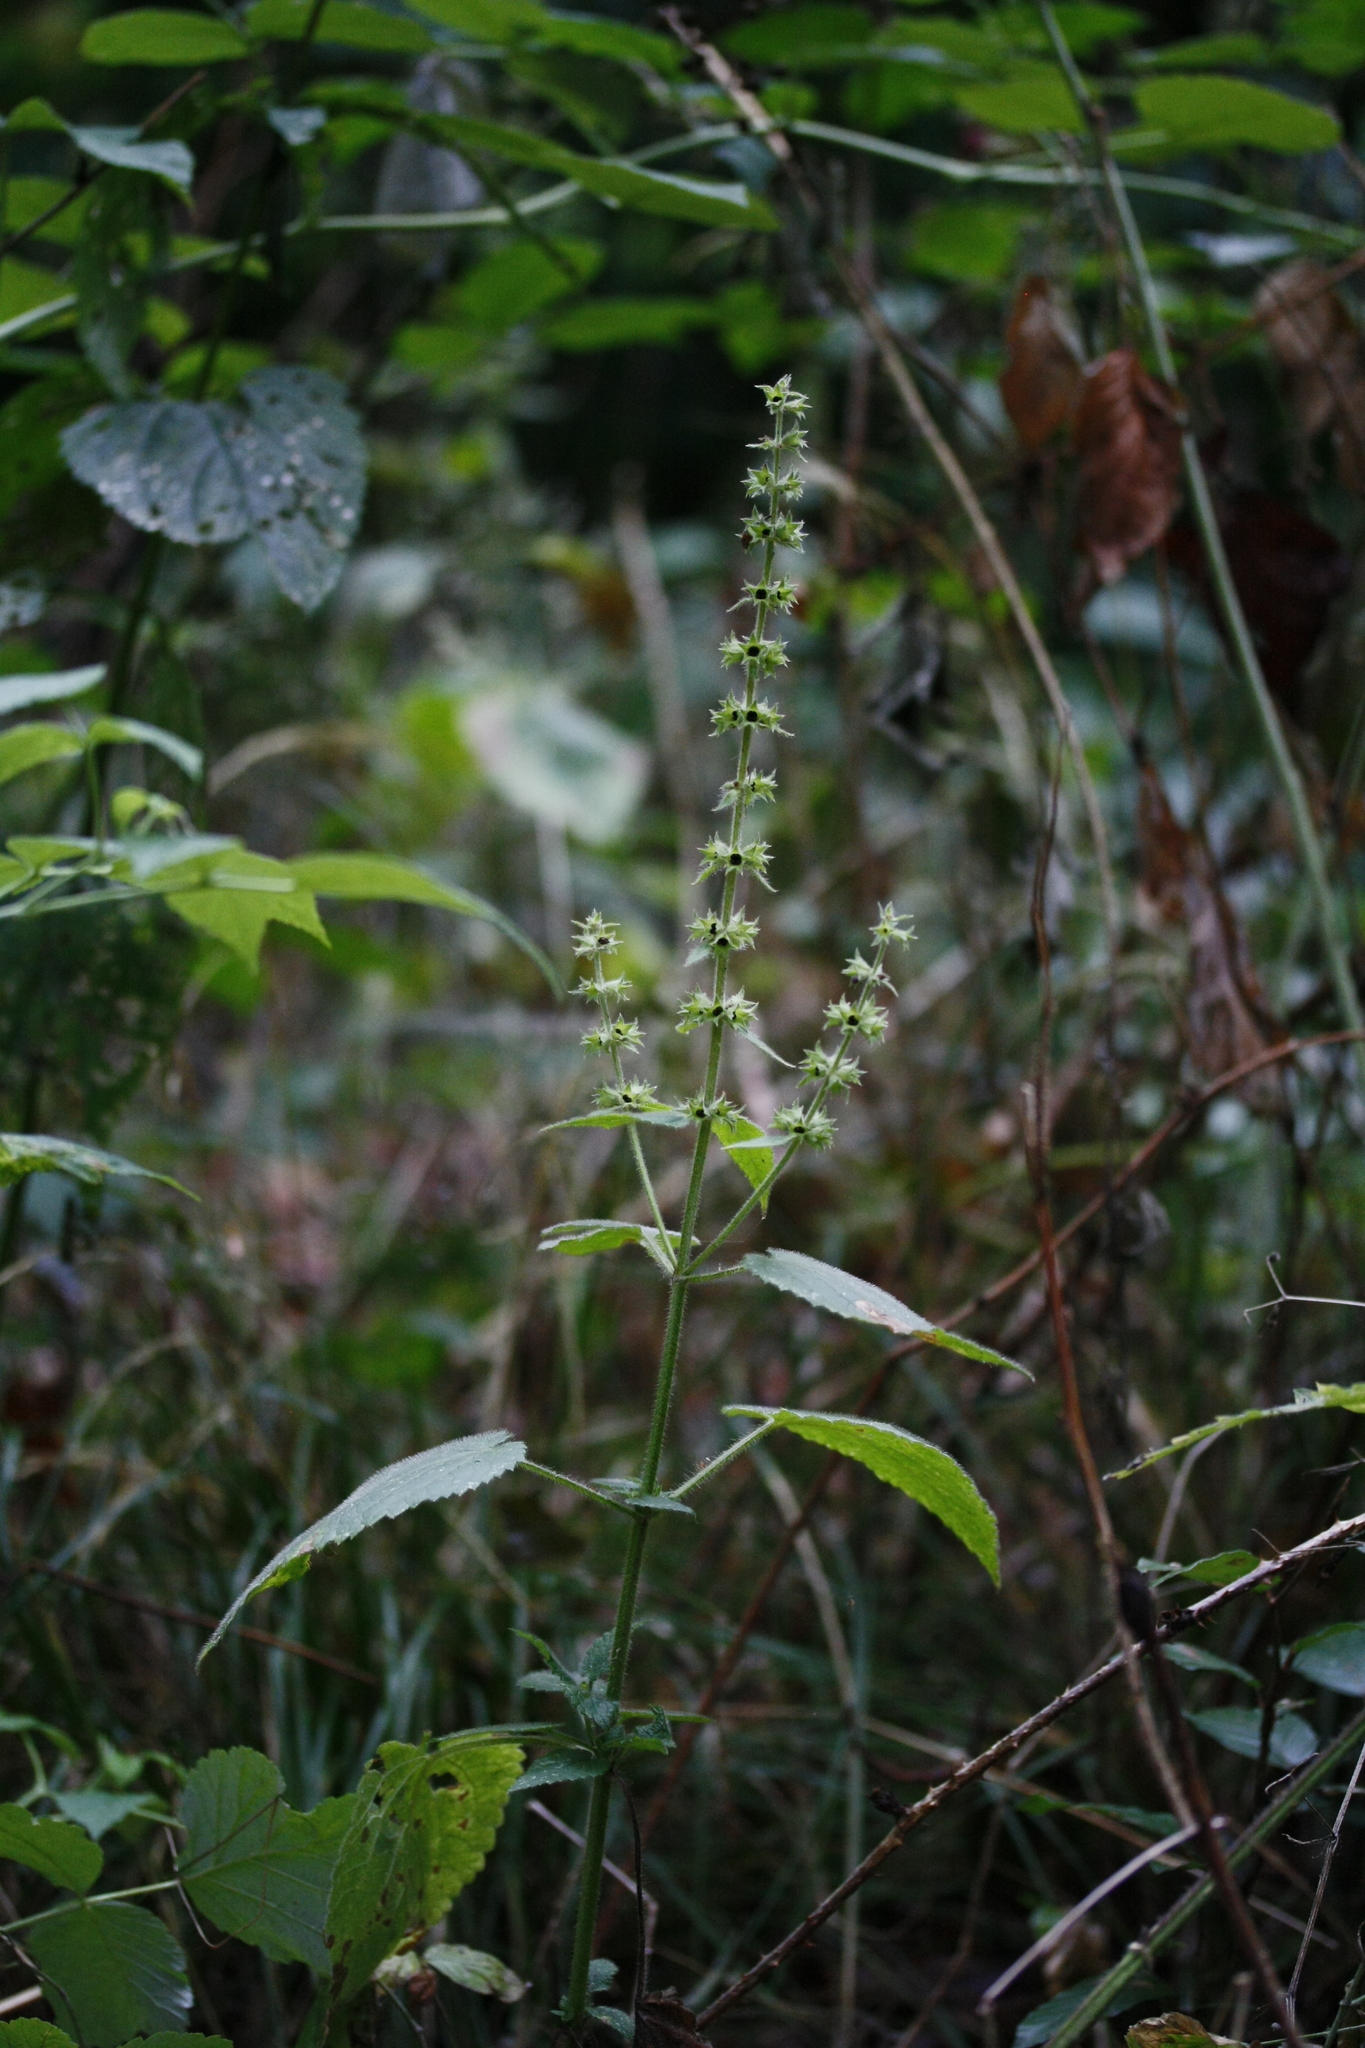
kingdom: Plantae
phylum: Tracheophyta
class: Magnoliopsida
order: Lamiales
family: Lamiaceae
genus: Stachys
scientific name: Stachys sylvatica
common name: Hedge woundwort
